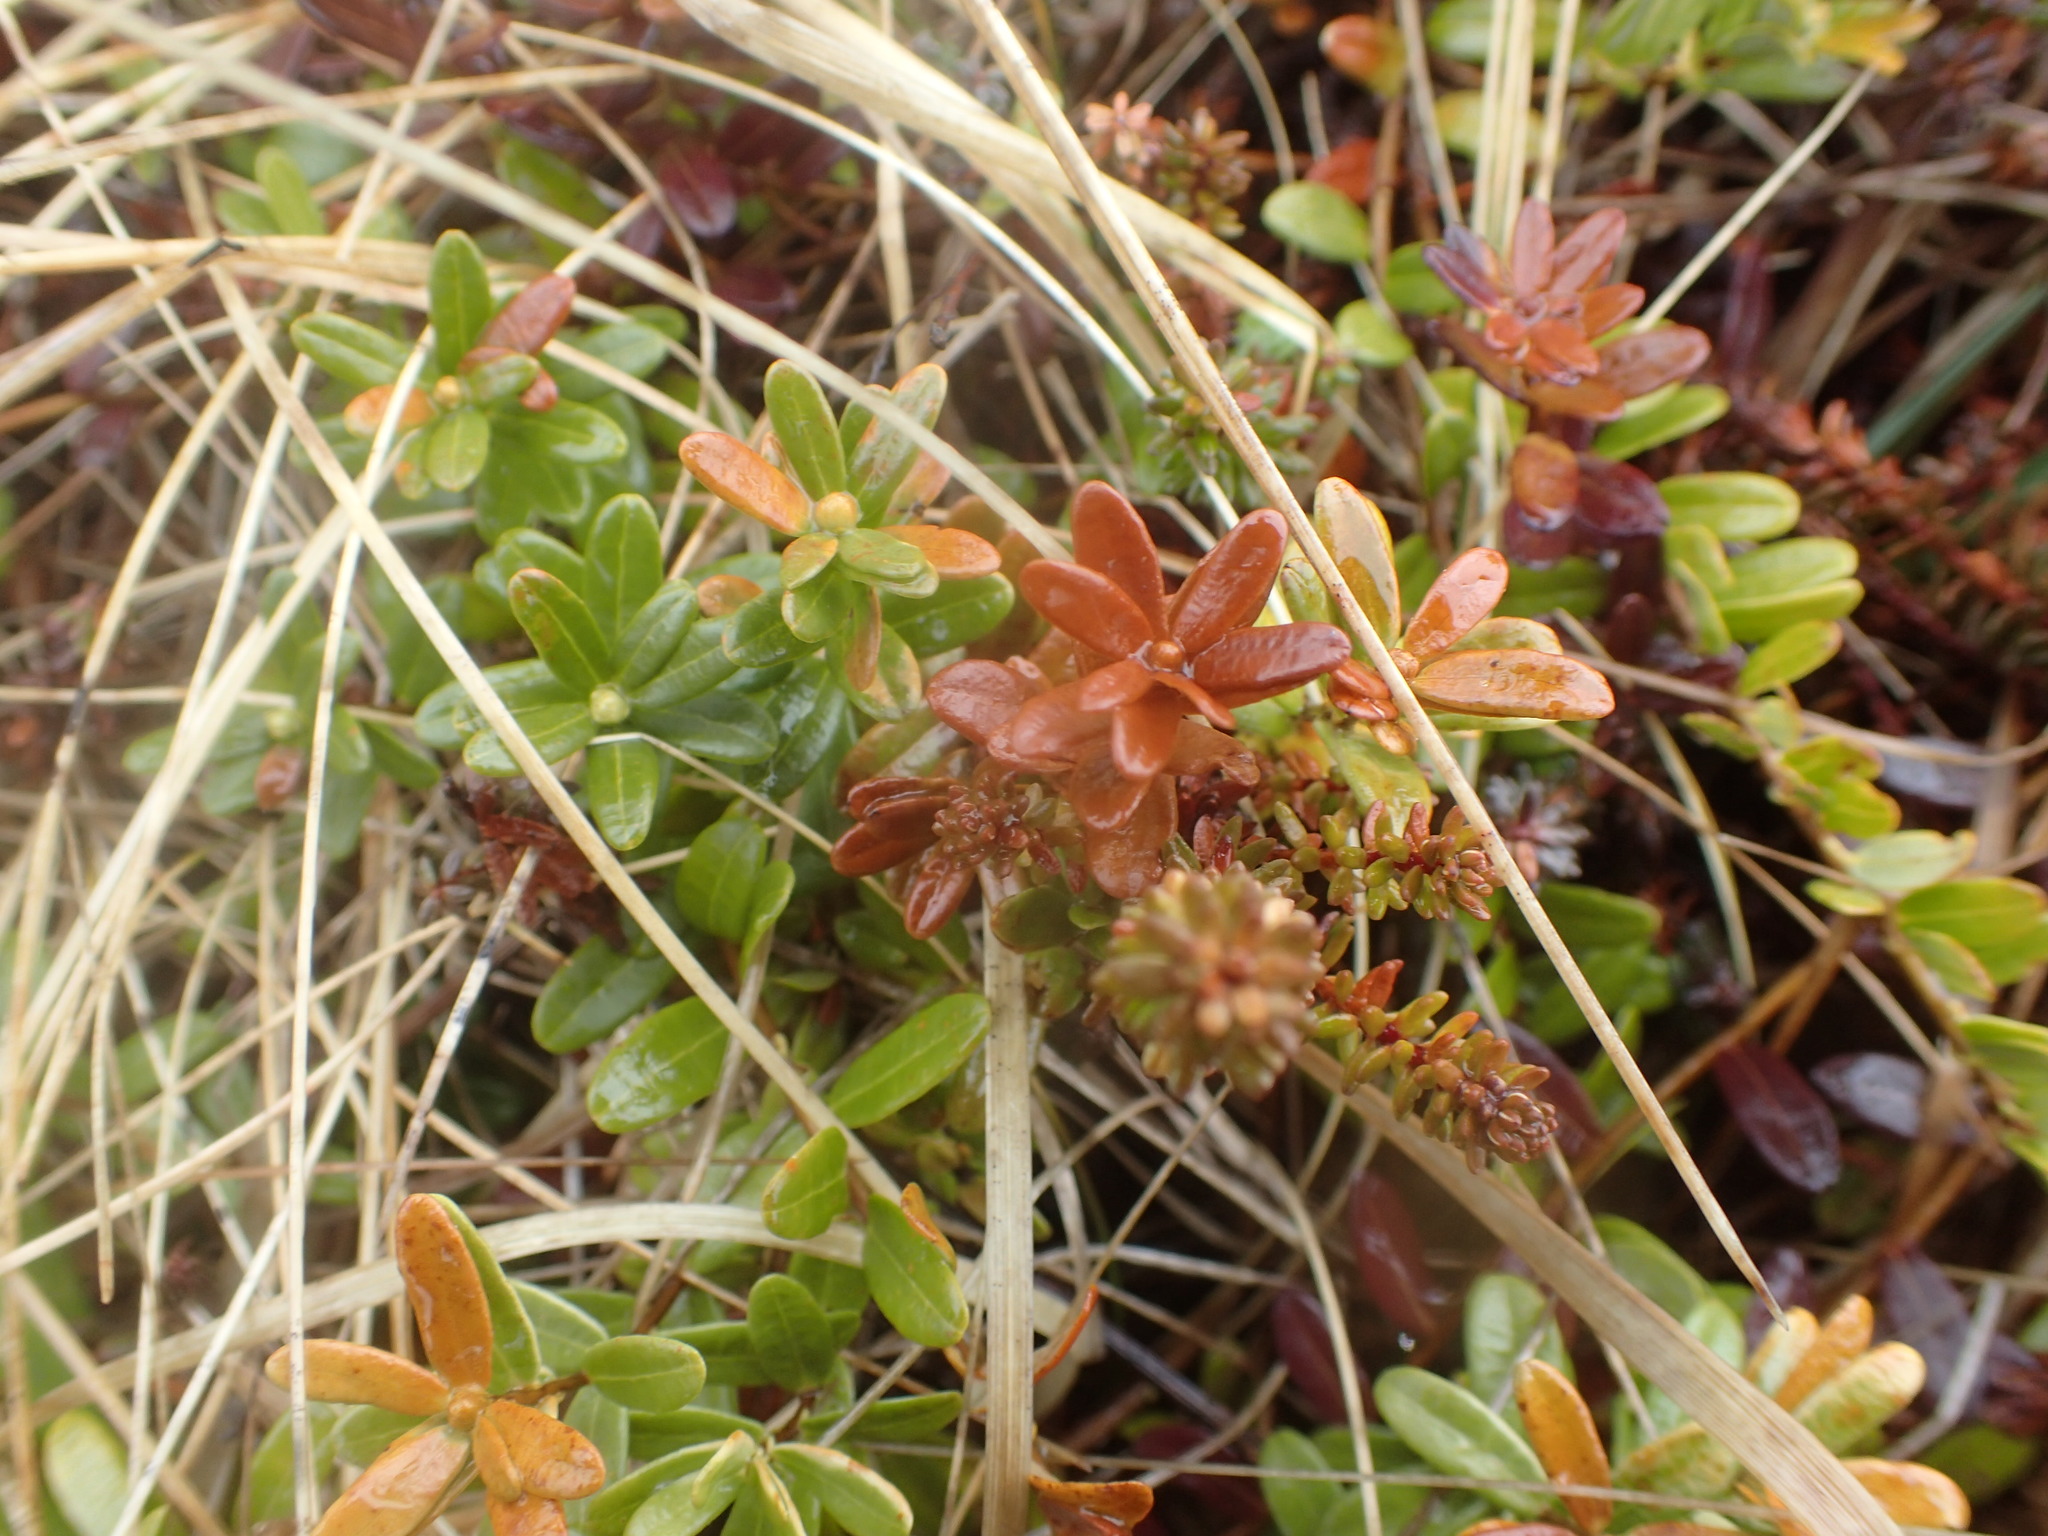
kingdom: Plantae
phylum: Tracheophyta
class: Magnoliopsida
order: Ericales
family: Ericaceae
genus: Vaccinium
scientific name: Vaccinium macrocarpon
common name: American cranberry
